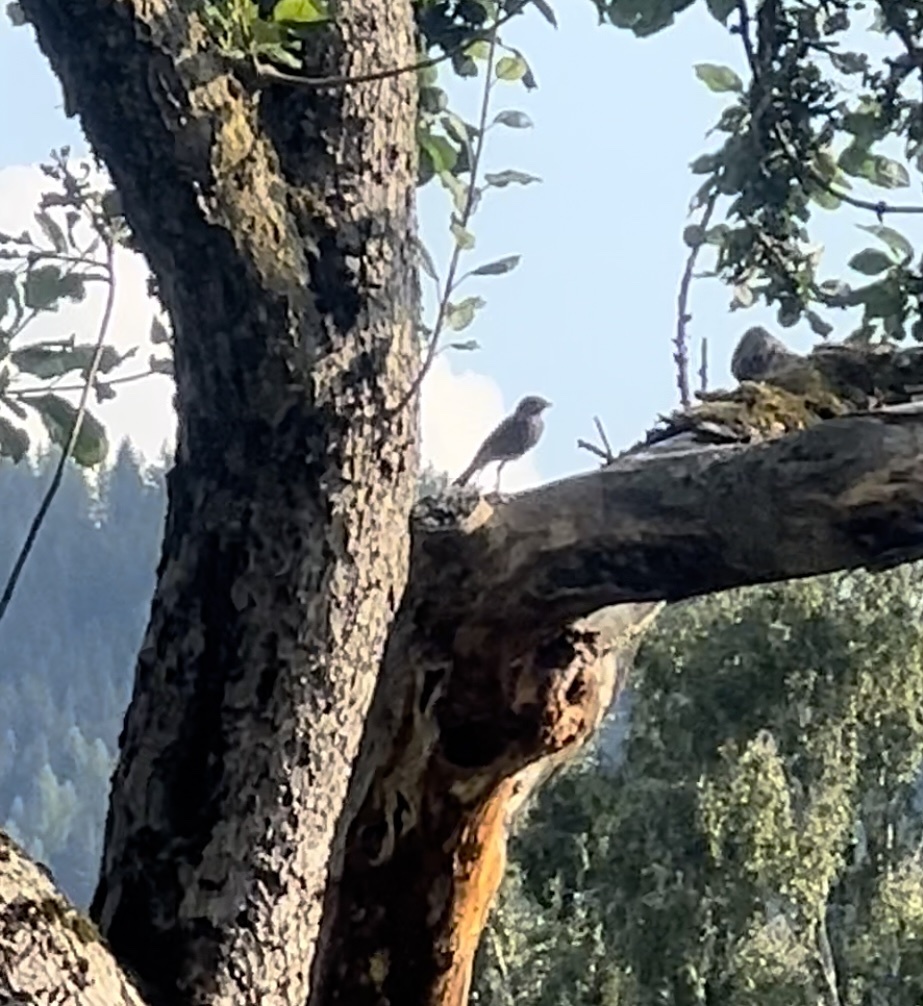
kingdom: Animalia
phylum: Chordata
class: Aves
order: Passeriformes
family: Muscicapidae
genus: Phoenicurus
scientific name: Phoenicurus ochruros
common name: Black redstart
